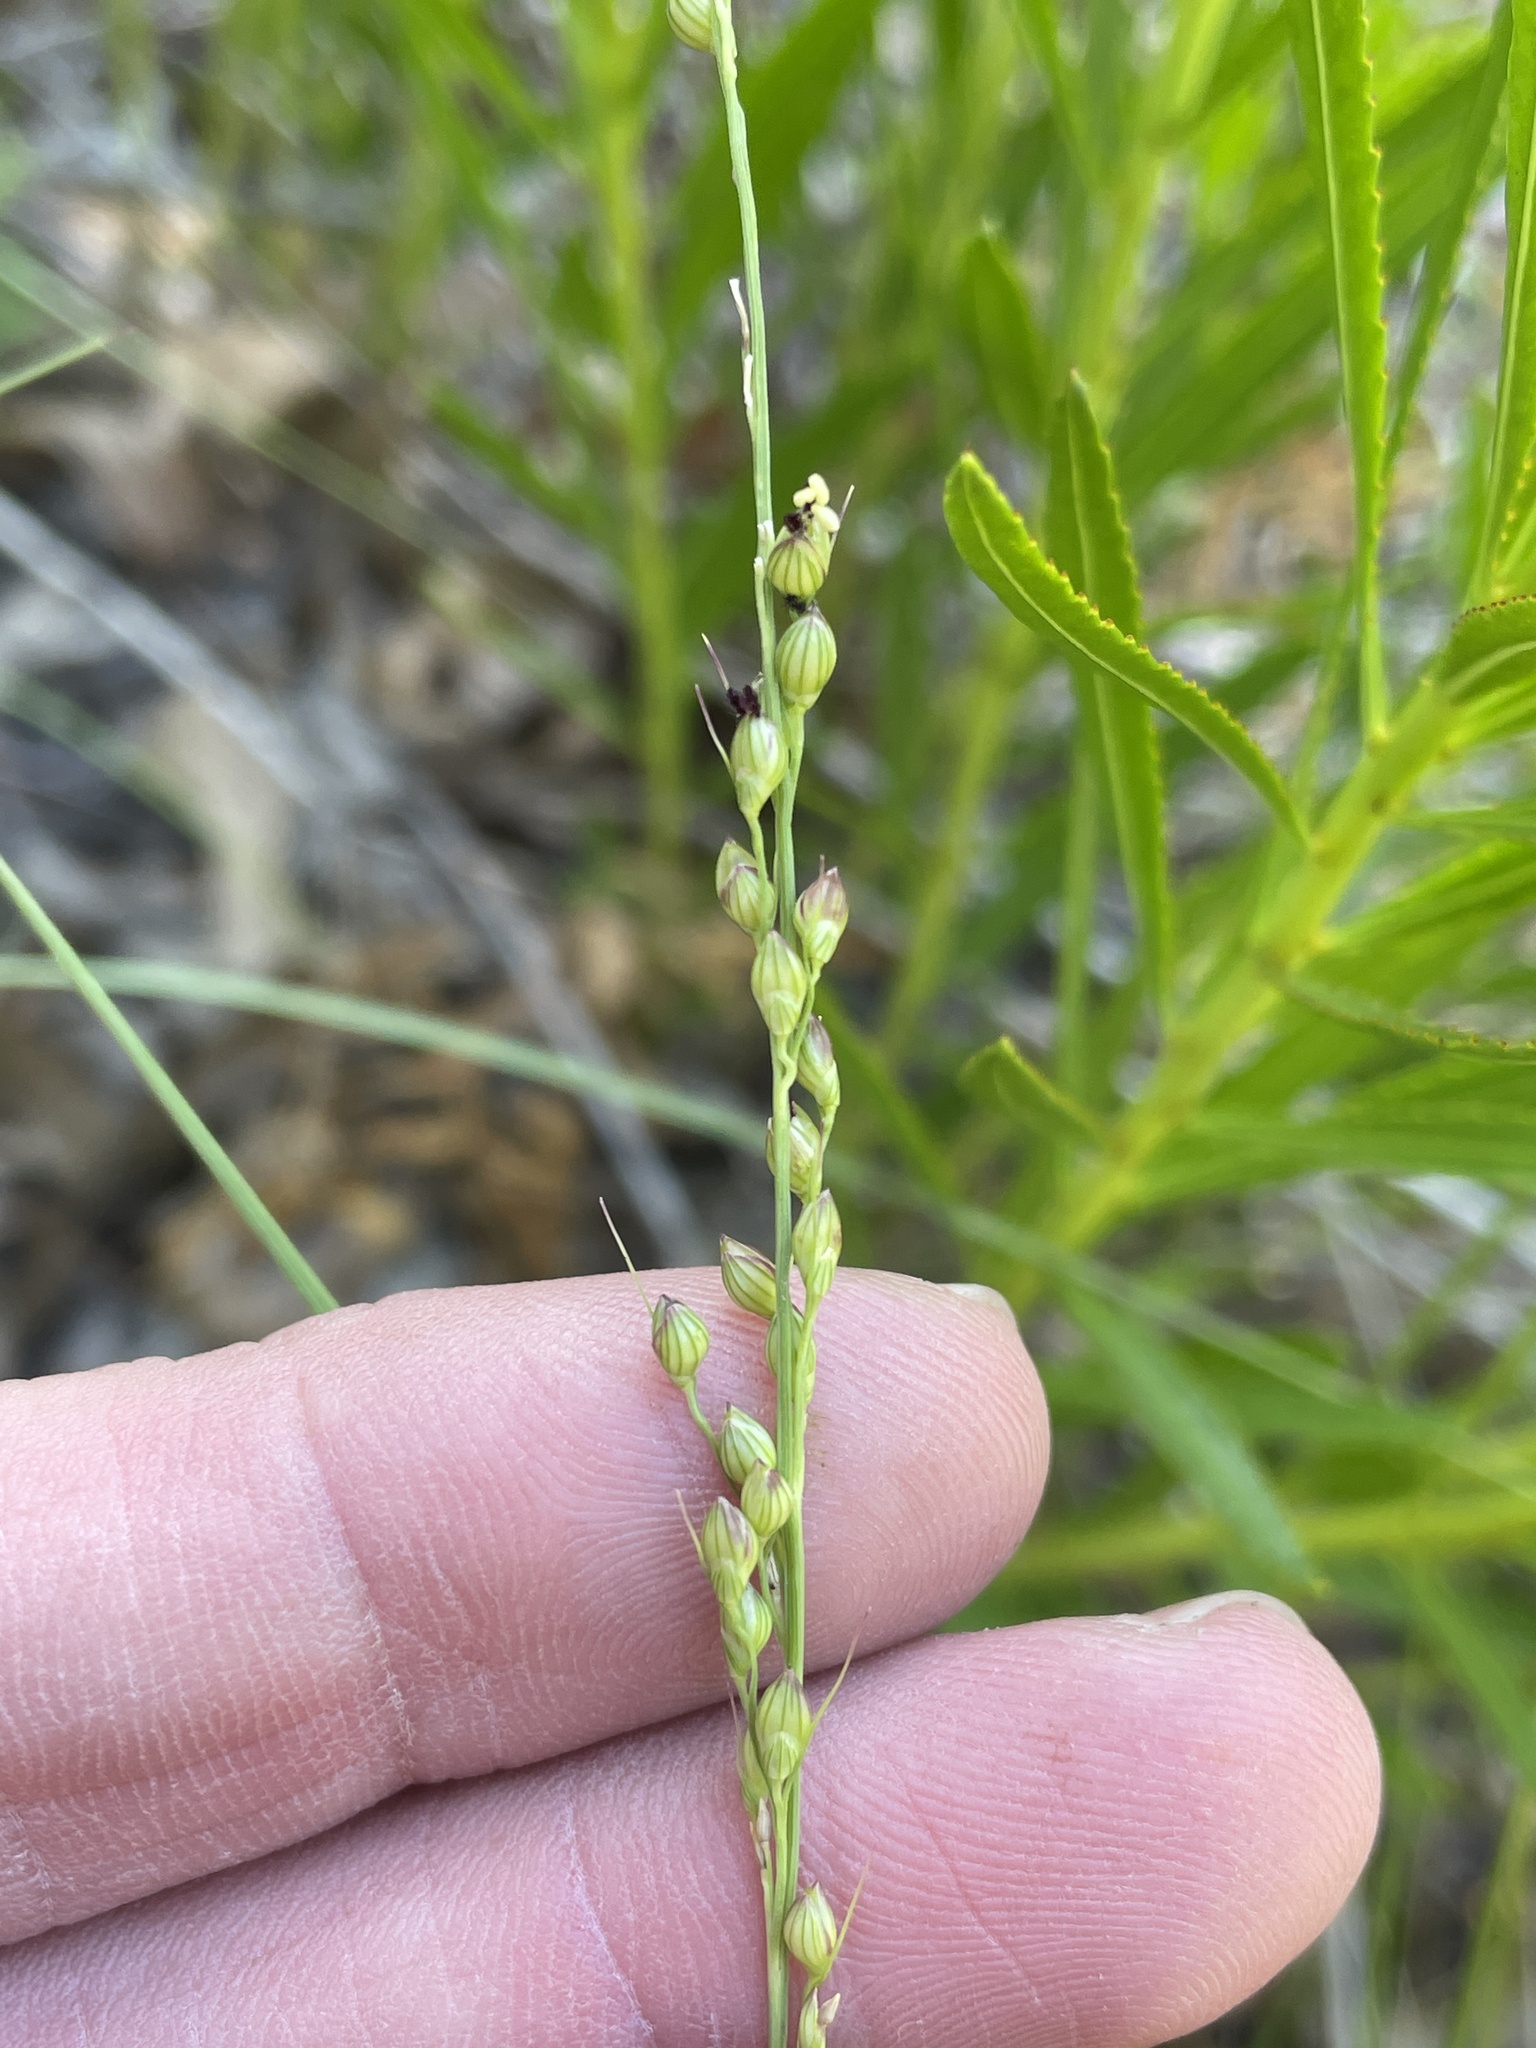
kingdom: Plantae
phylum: Tracheophyta
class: Liliopsida
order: Poales
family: Poaceae
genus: Setaria
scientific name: Setaria reverchonii
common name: Reverchon's bristle grass
